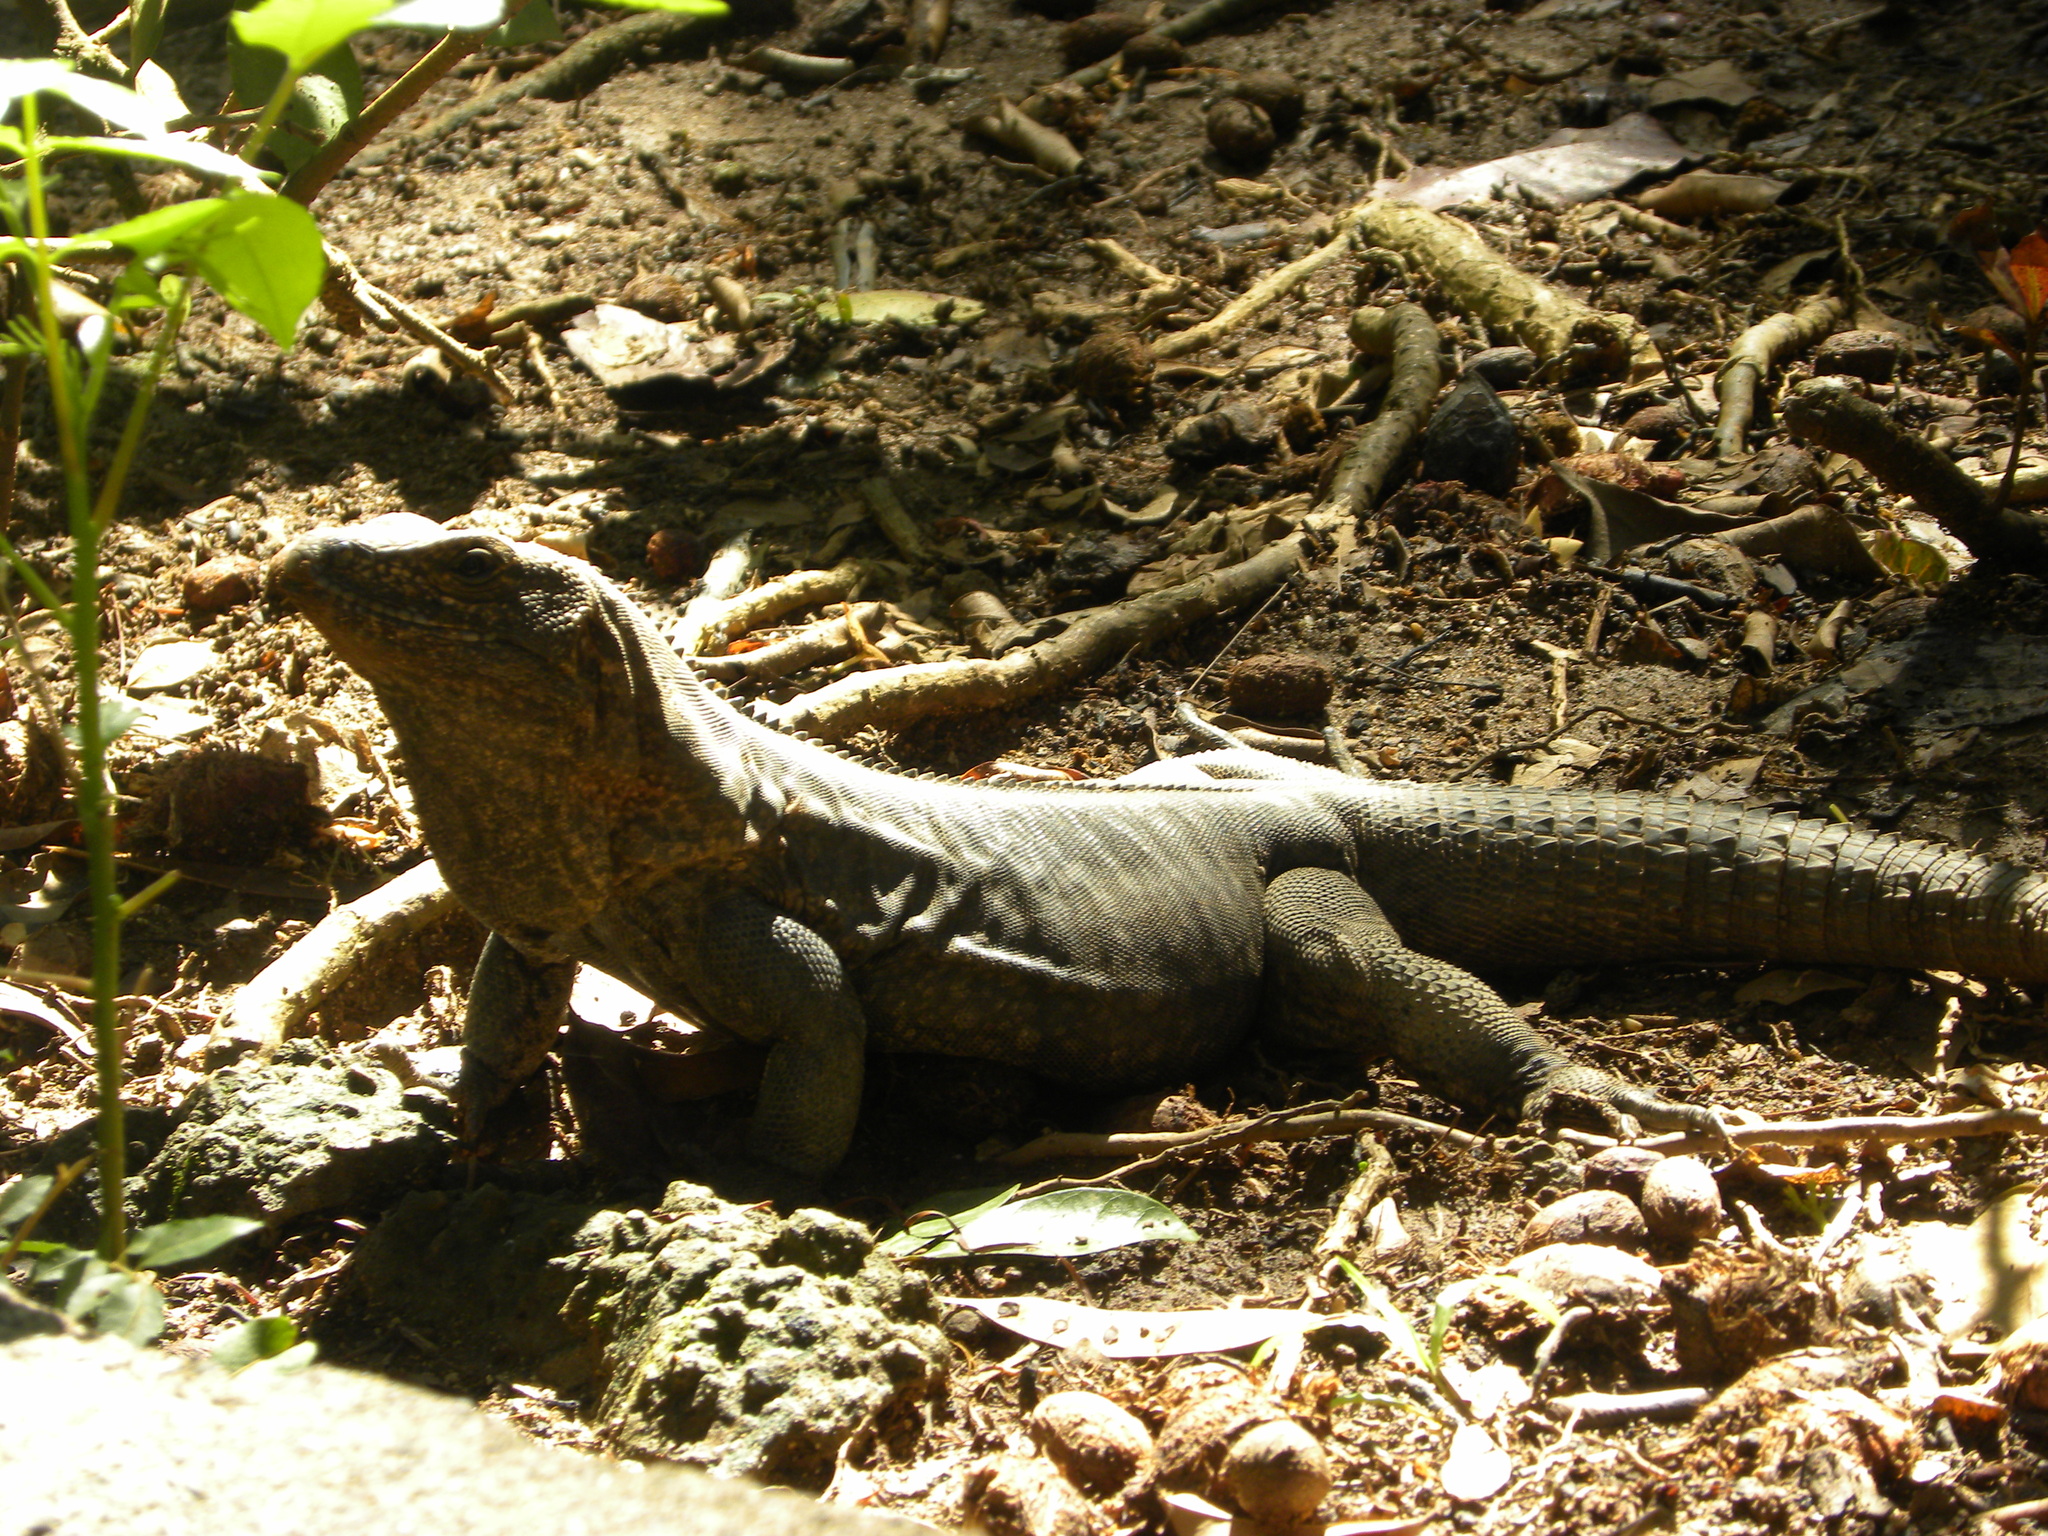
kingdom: Animalia
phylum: Chordata
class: Squamata
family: Iguanidae
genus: Ctenosaura
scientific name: Ctenosaura oedirhina
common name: Roatan spiny-tailed iguana
